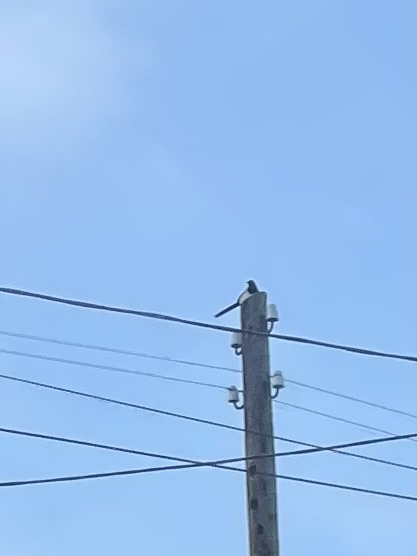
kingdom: Animalia
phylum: Chordata
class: Aves
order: Passeriformes
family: Corvidae
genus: Pica
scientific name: Pica pica
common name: Eurasian magpie
